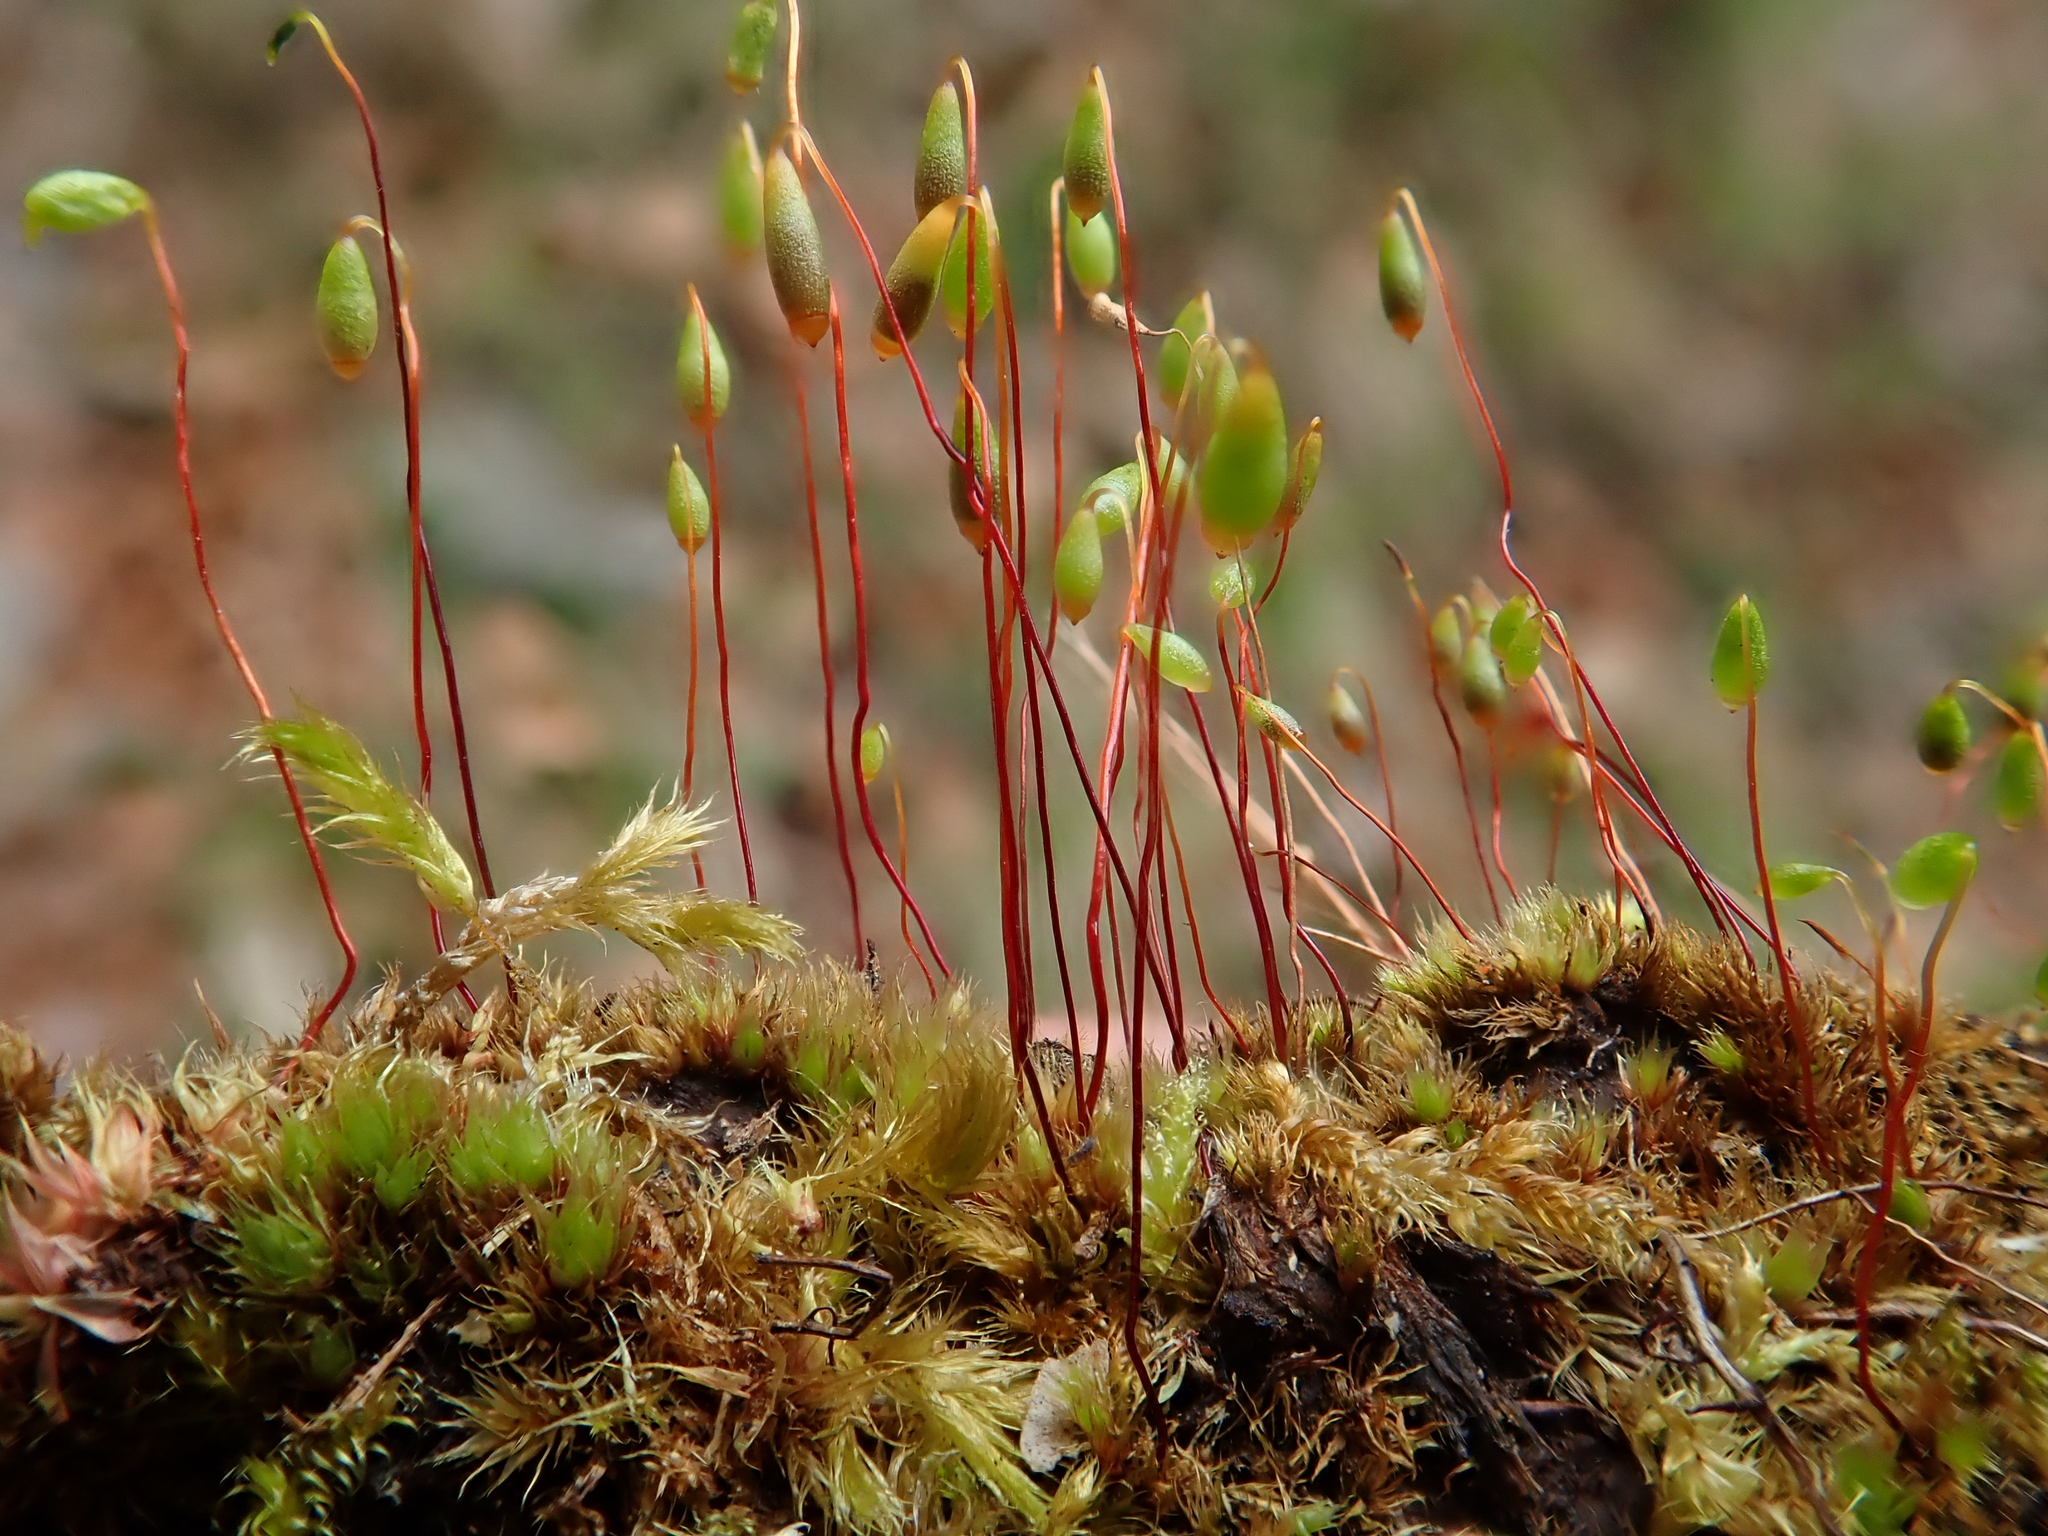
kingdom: Plantae
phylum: Bryophyta
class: Bryopsida
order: Bryales
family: Bryaceae
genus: Gemmabryum
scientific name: Gemmabryum caespiticium
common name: Handbell moss
